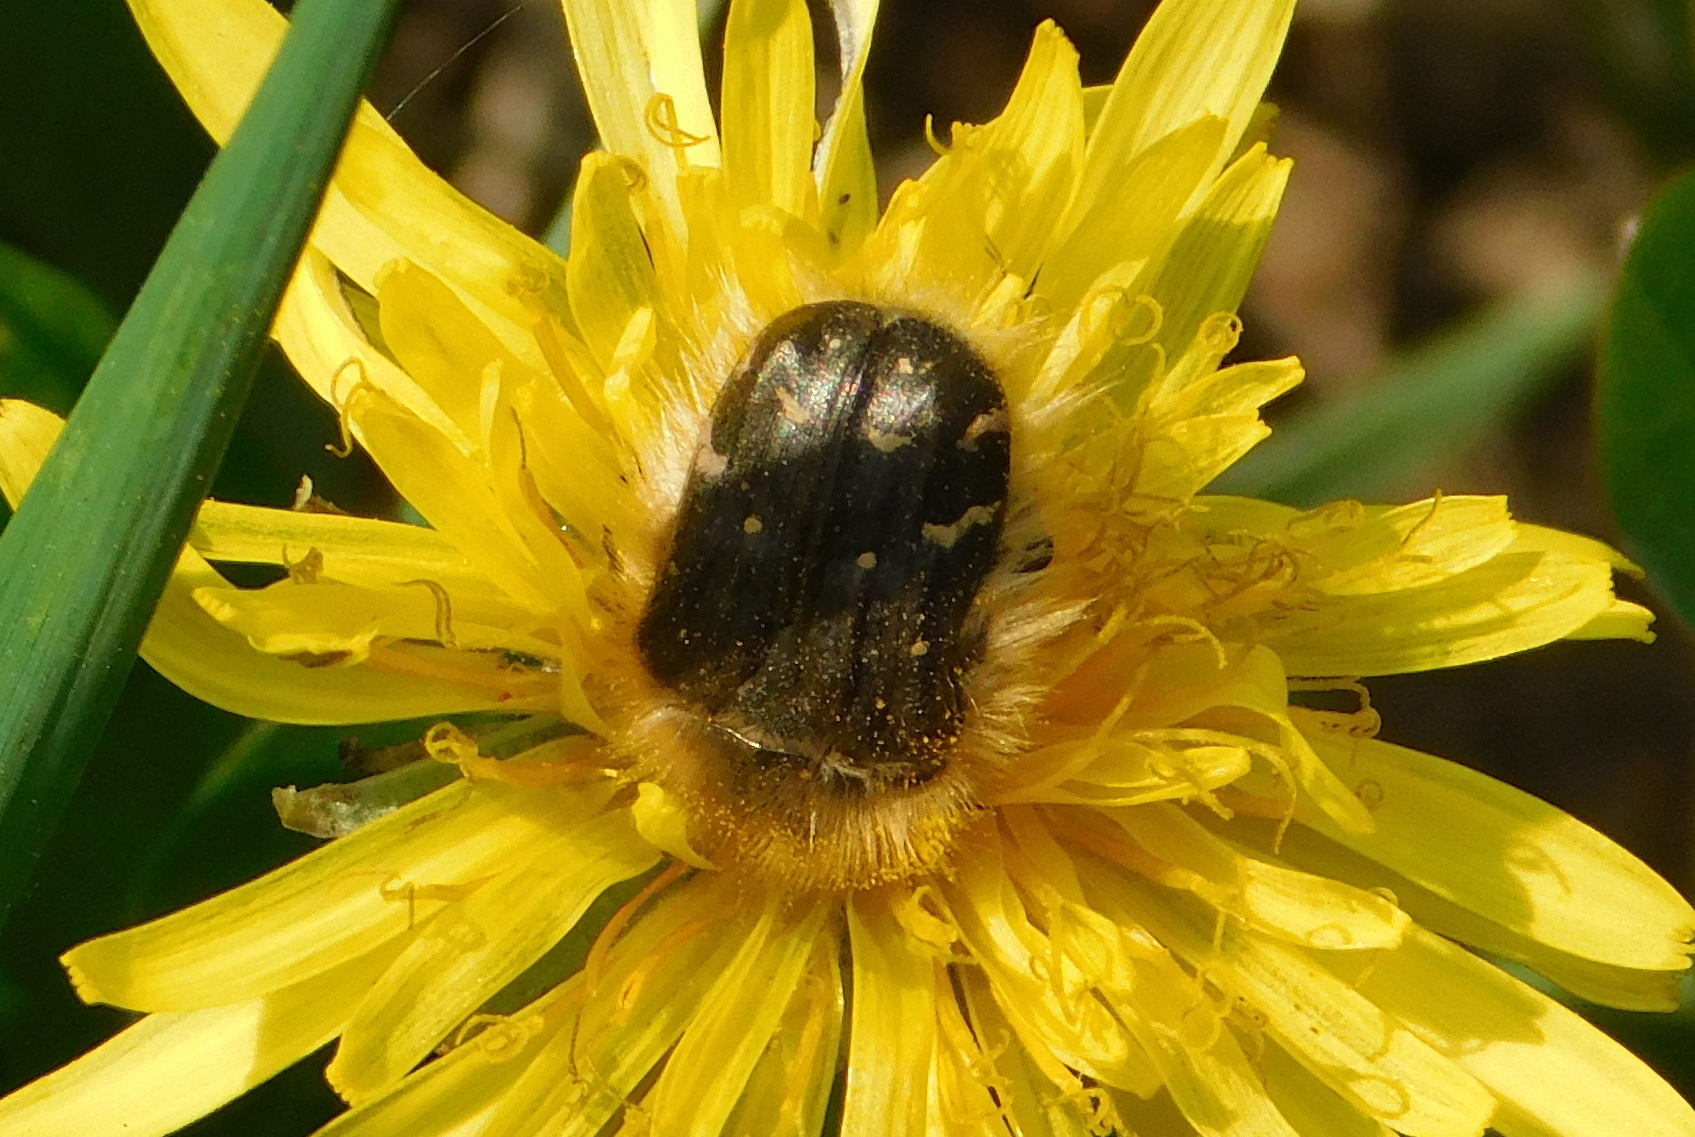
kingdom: Animalia
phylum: Arthropoda
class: Insecta
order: Coleoptera
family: Scarabaeidae
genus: Tropinota
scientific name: Tropinota hirta
